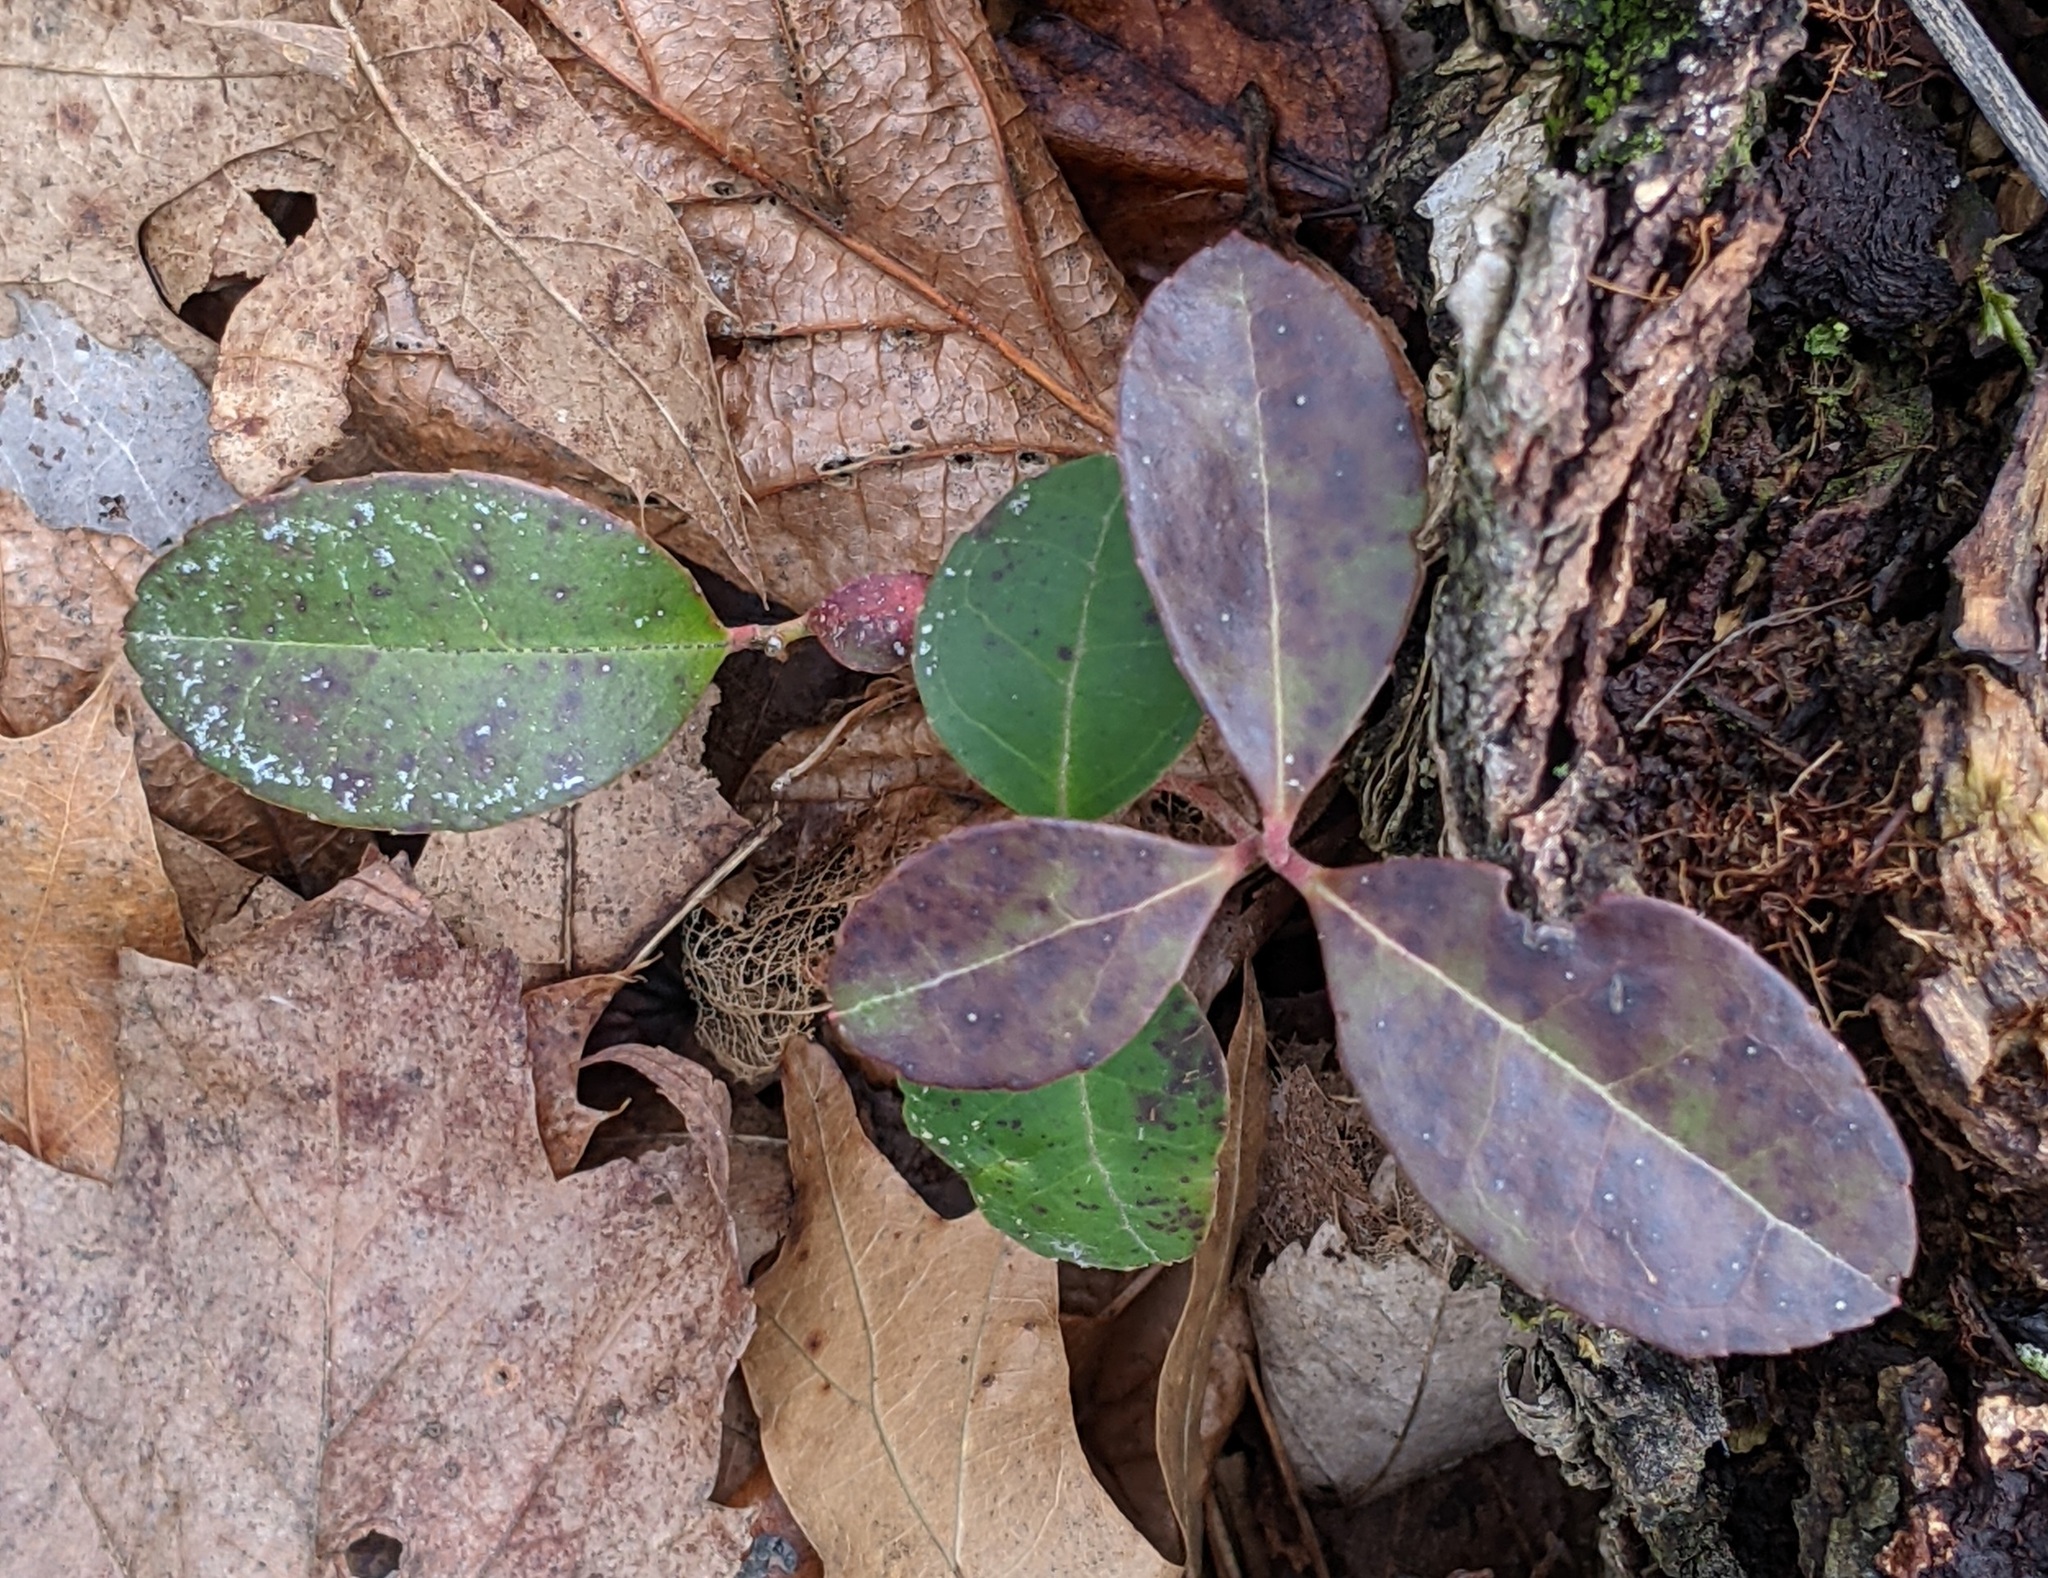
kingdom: Plantae
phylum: Tracheophyta
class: Magnoliopsida
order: Ericales
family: Ericaceae
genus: Gaultheria
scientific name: Gaultheria procumbens
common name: Checkerberry
